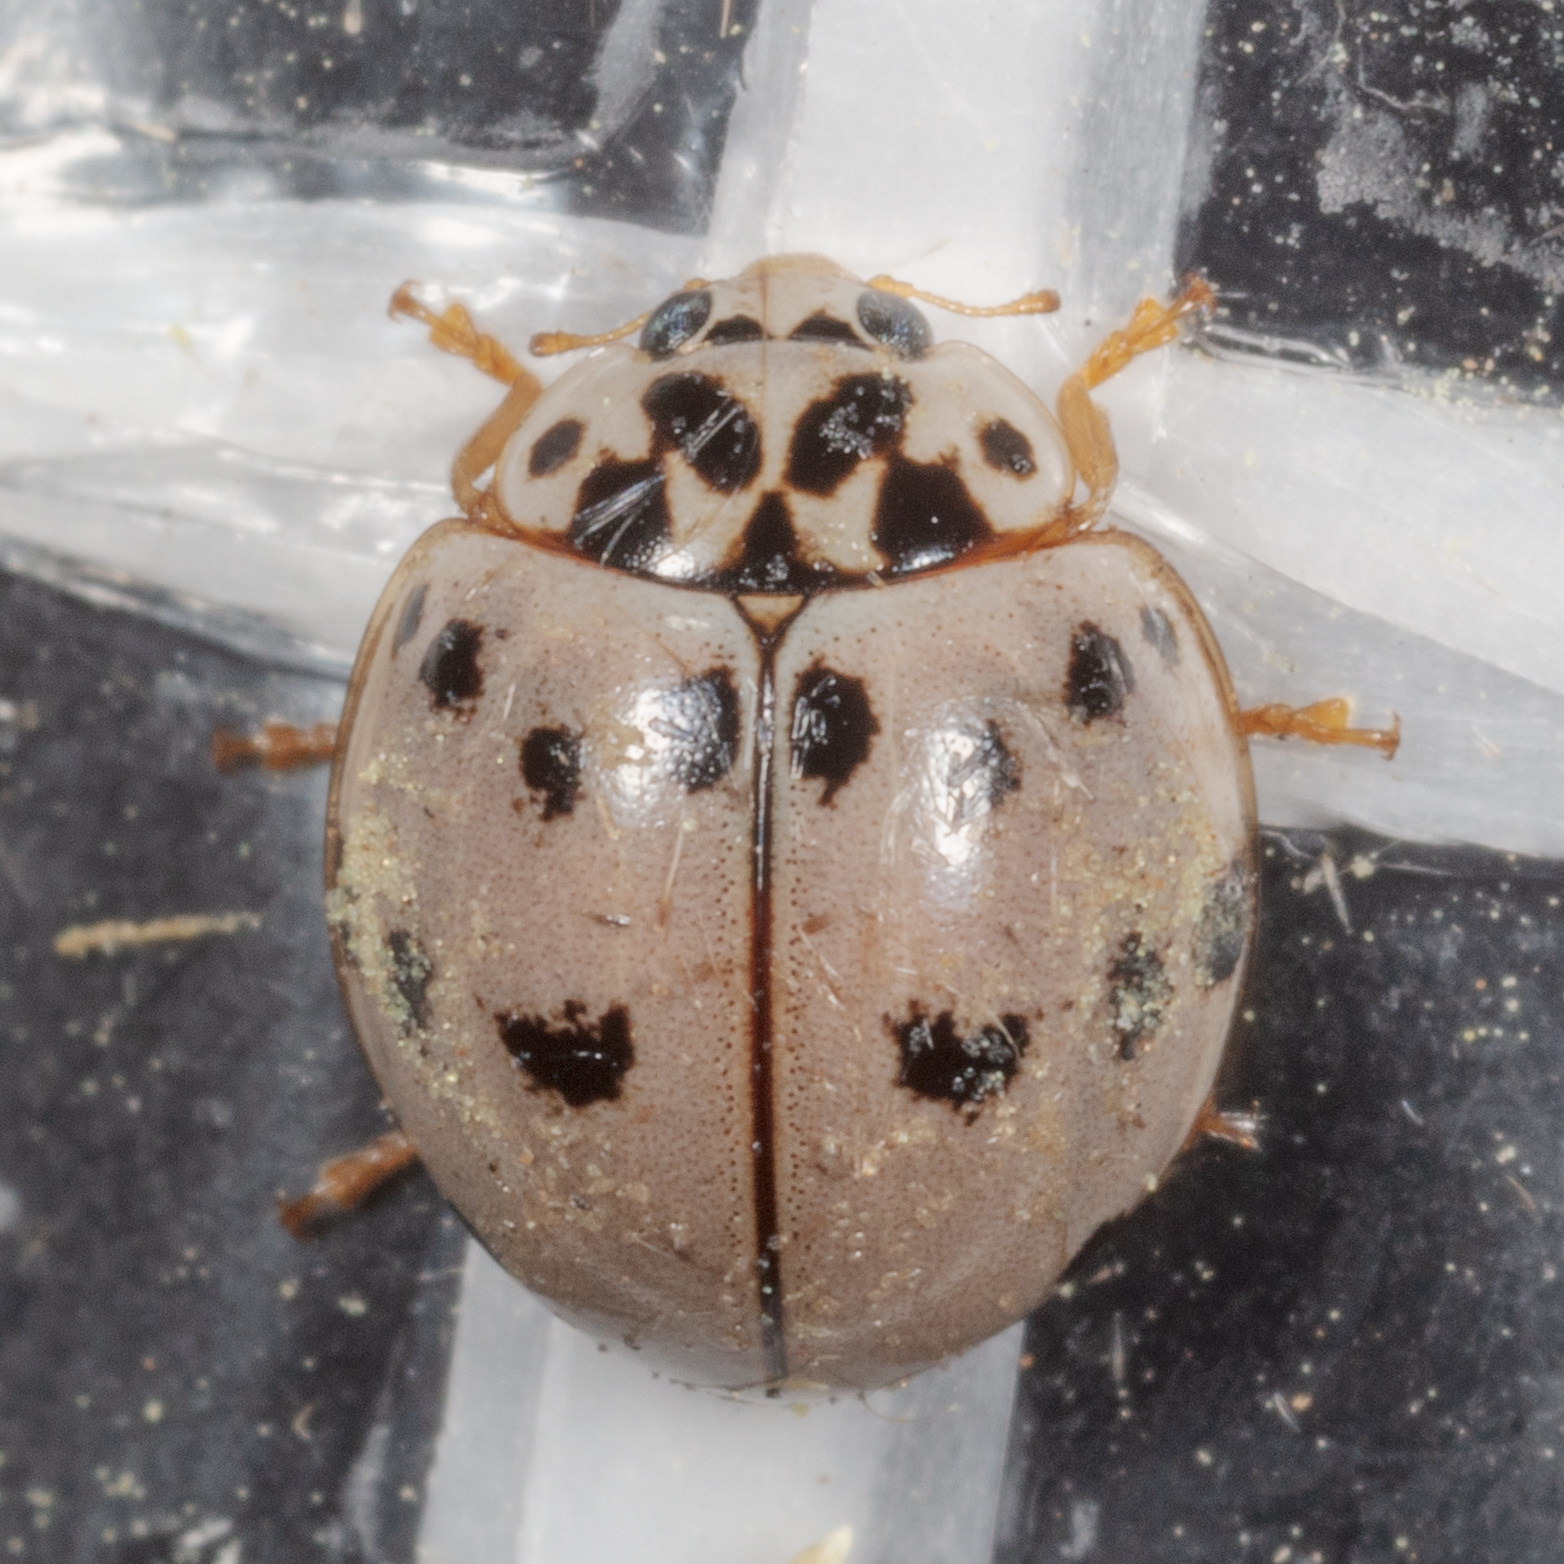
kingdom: Animalia
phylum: Arthropoda
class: Insecta
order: Coleoptera
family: Coccinellidae
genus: Olla
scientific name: Olla v-nigrum
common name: Ashy gray lady beetle
